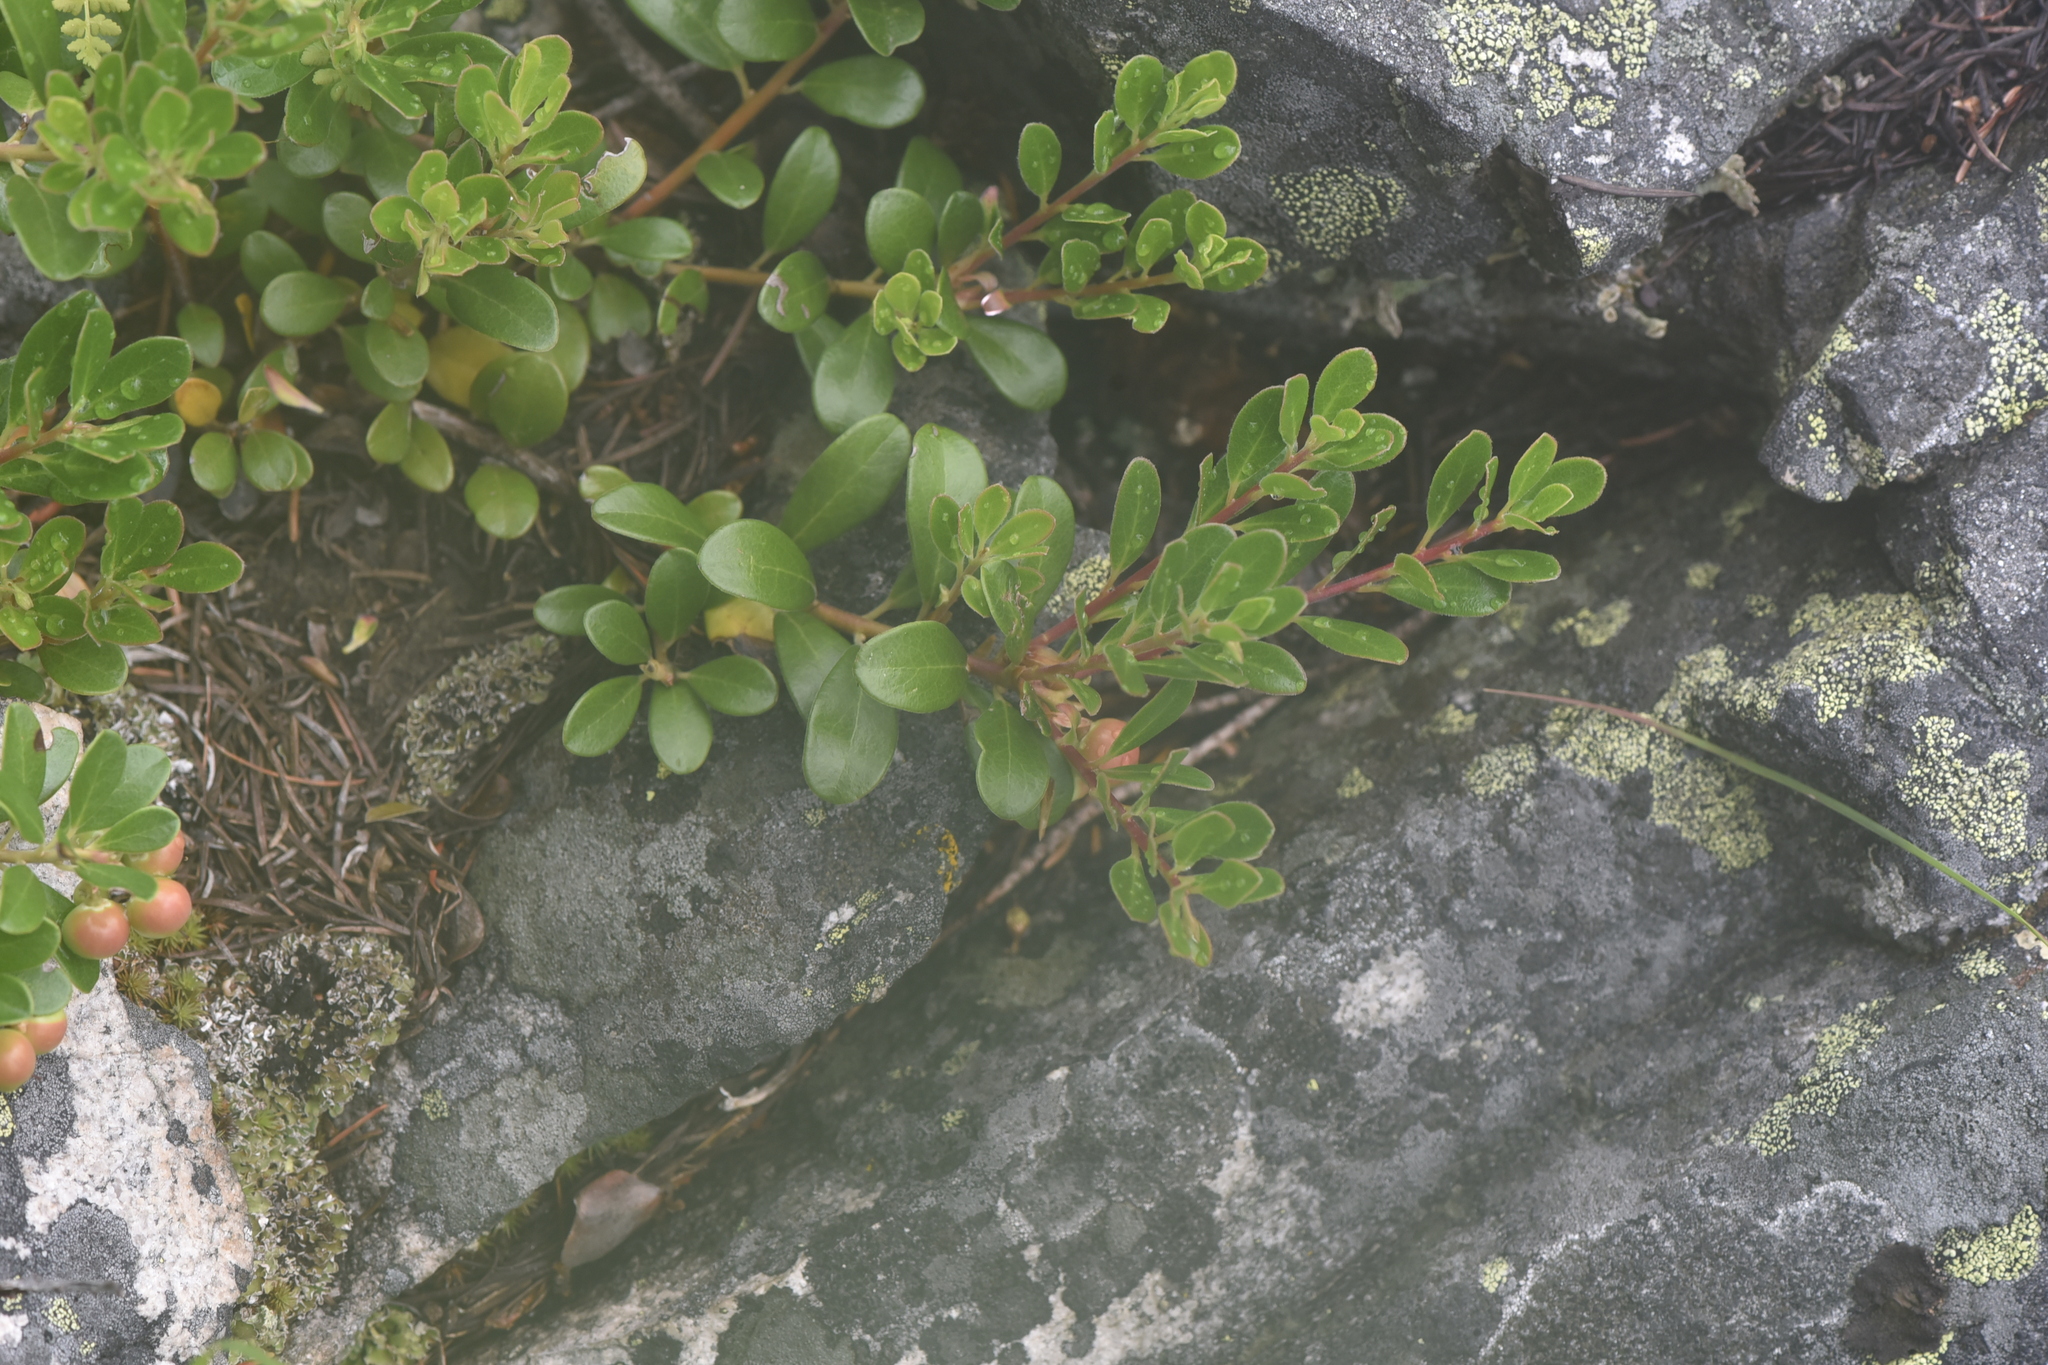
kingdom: Plantae
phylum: Tracheophyta
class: Magnoliopsida
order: Ericales
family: Ericaceae
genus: Arctostaphylos
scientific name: Arctostaphylos uva-ursi
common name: Bearberry
